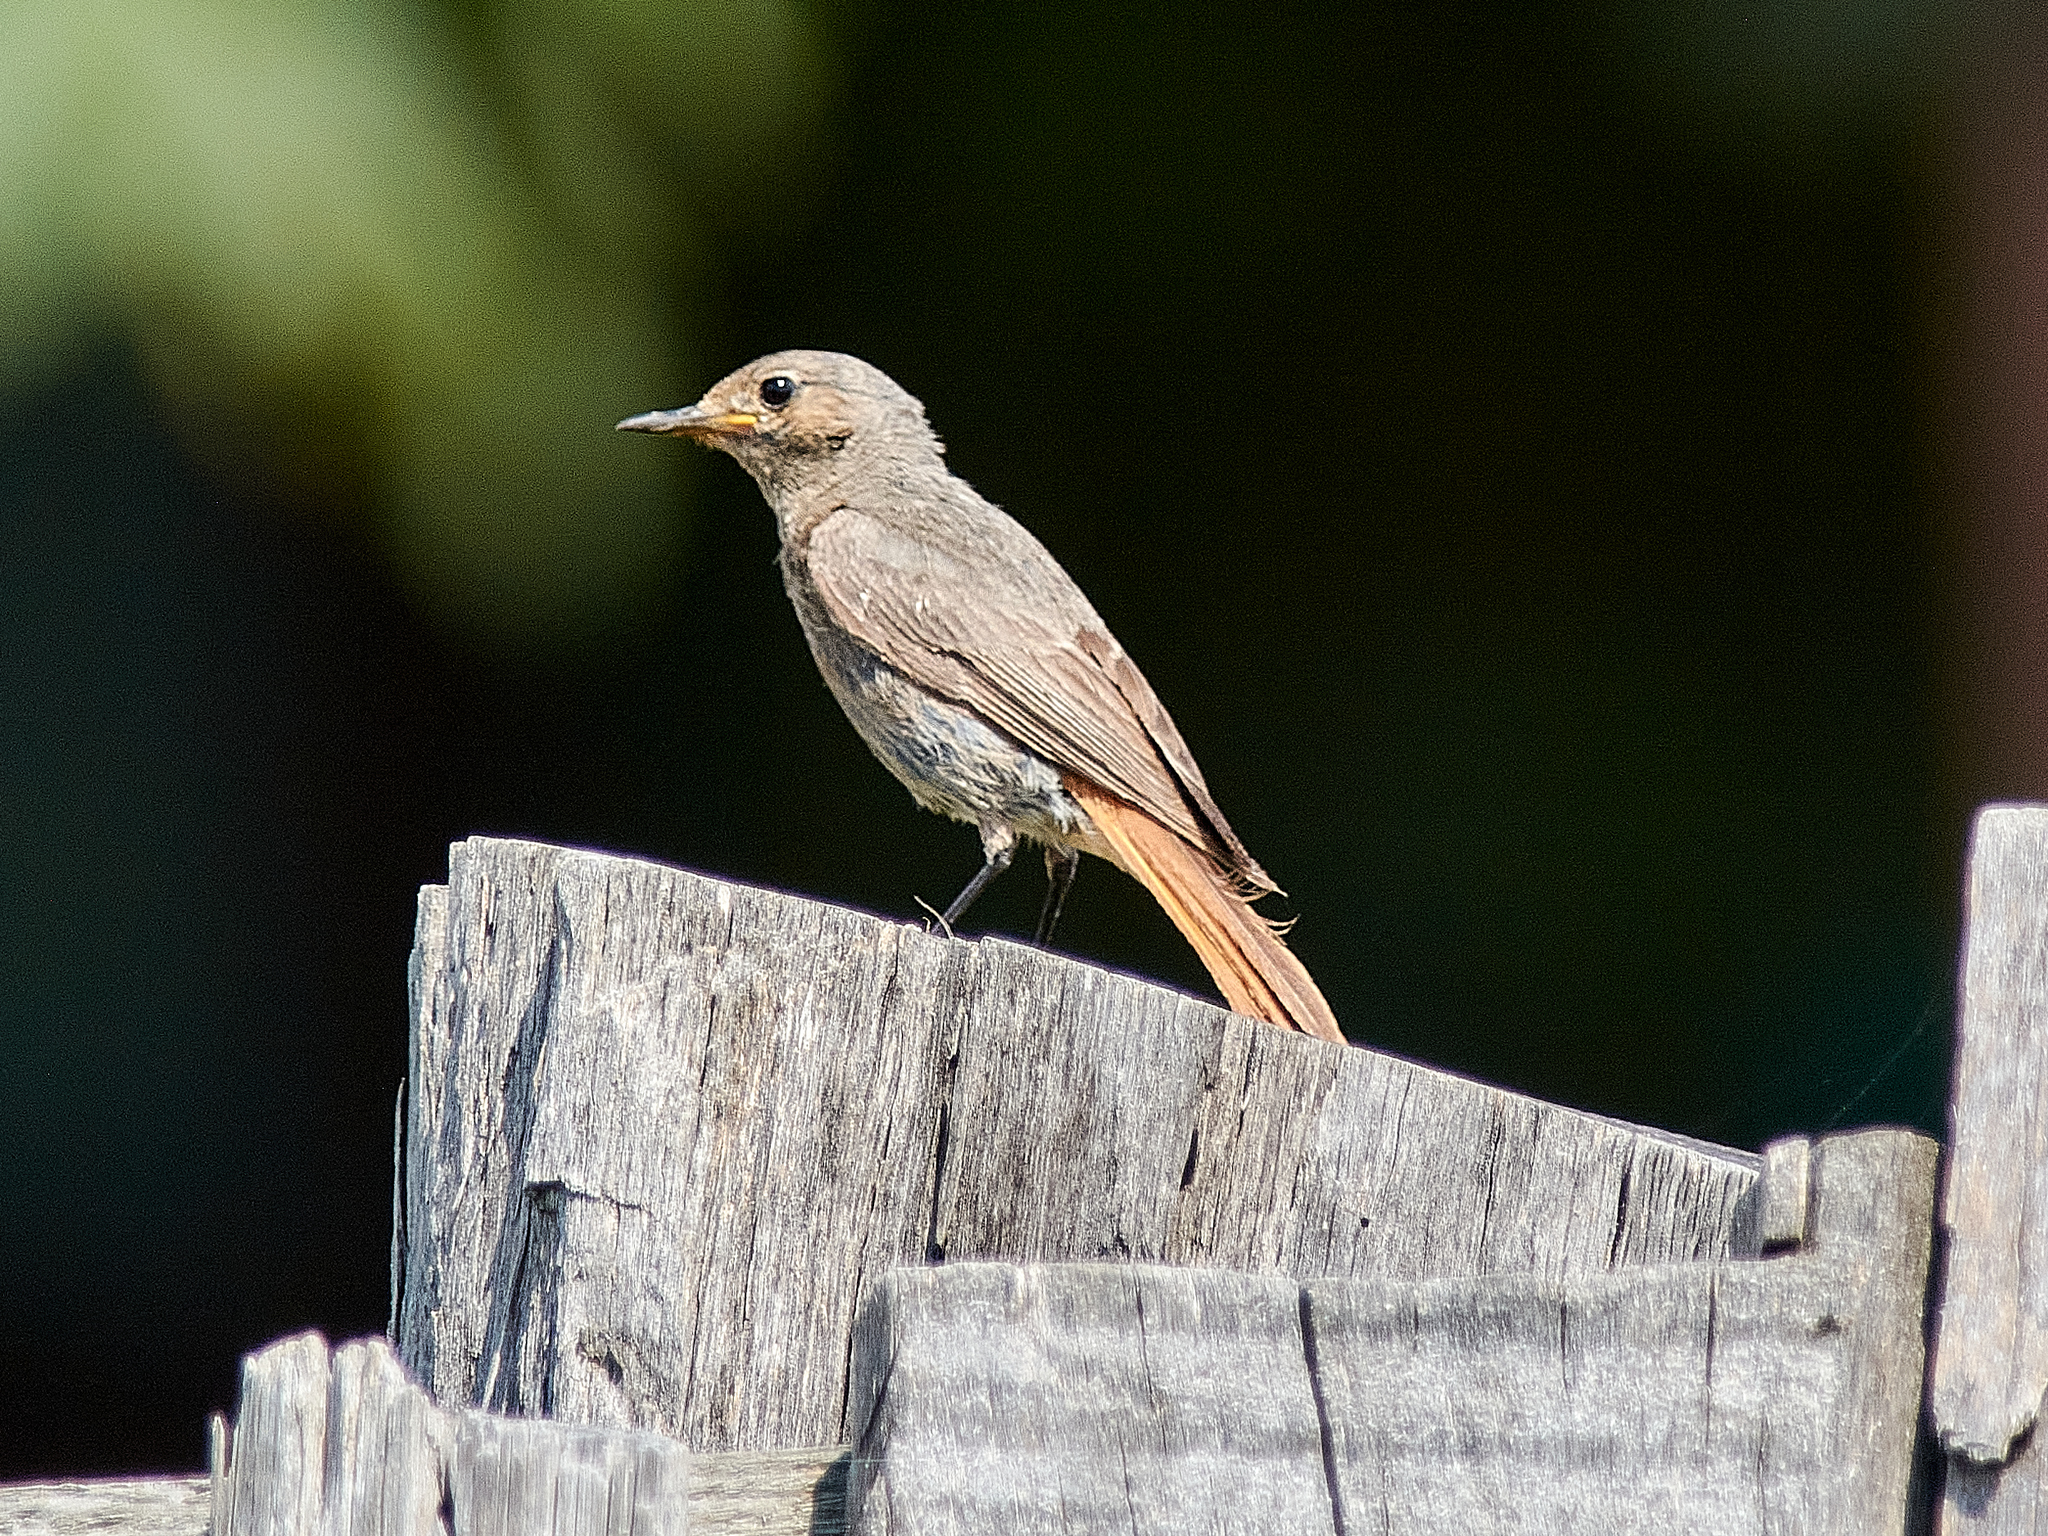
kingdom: Animalia
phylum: Chordata
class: Aves
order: Passeriformes
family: Muscicapidae
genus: Phoenicurus
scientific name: Phoenicurus ochruros
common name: Black redstart
